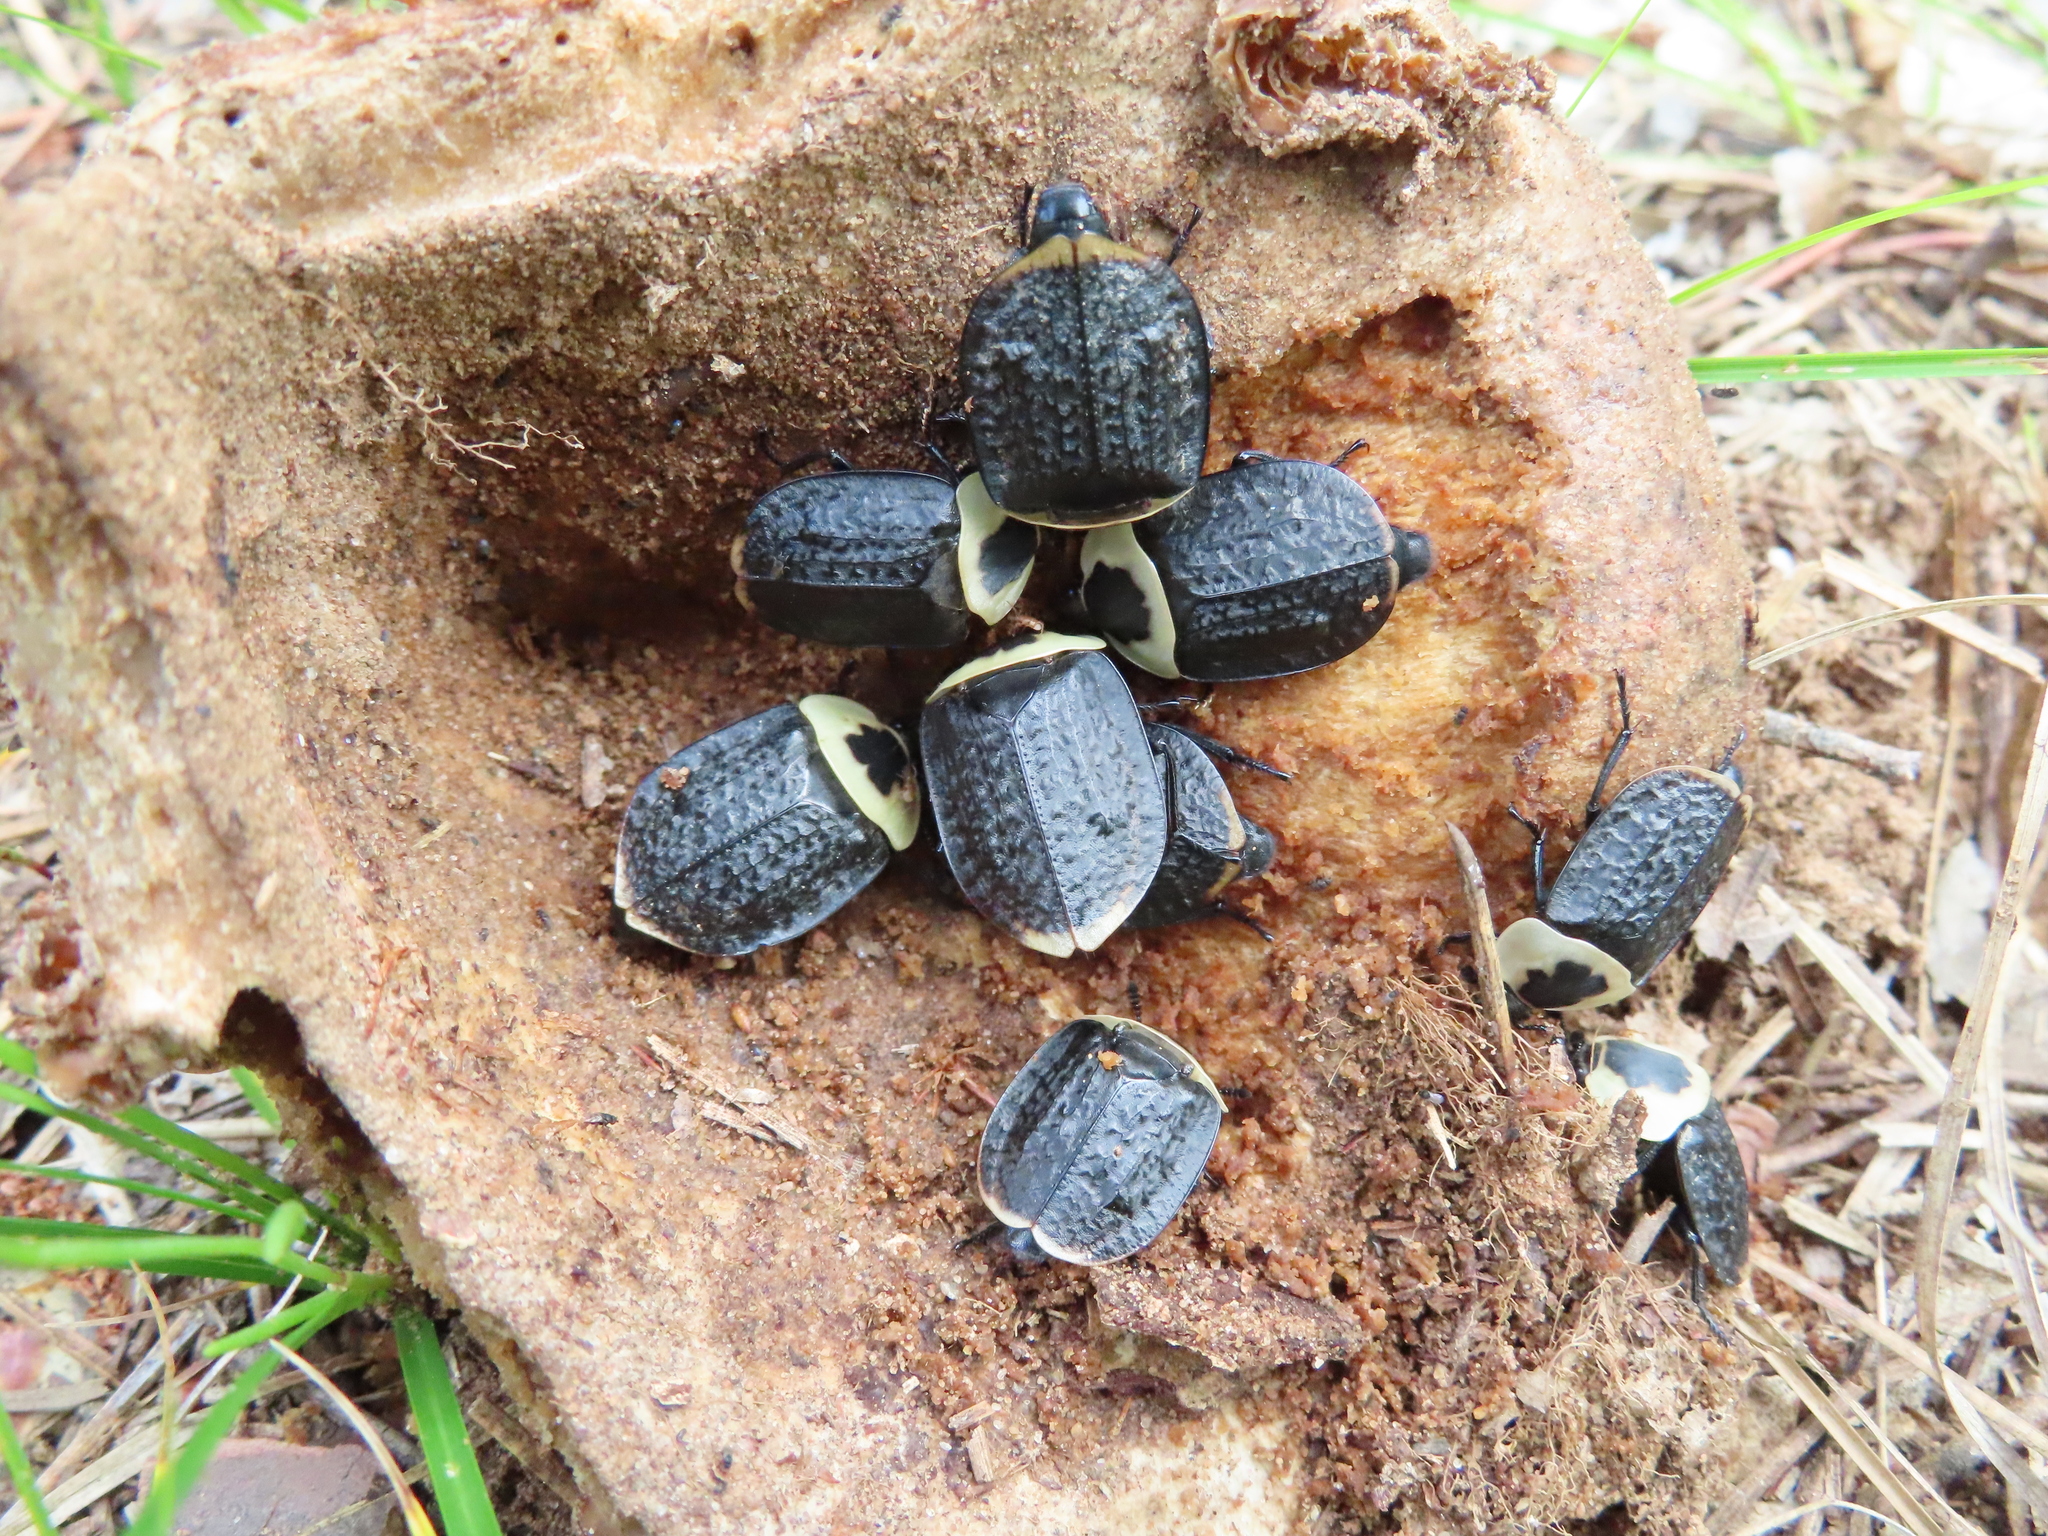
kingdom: Animalia
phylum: Arthropoda
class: Insecta
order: Coleoptera
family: Staphylinidae
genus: Necrophila
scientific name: Necrophila americana
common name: American carrion beetle
